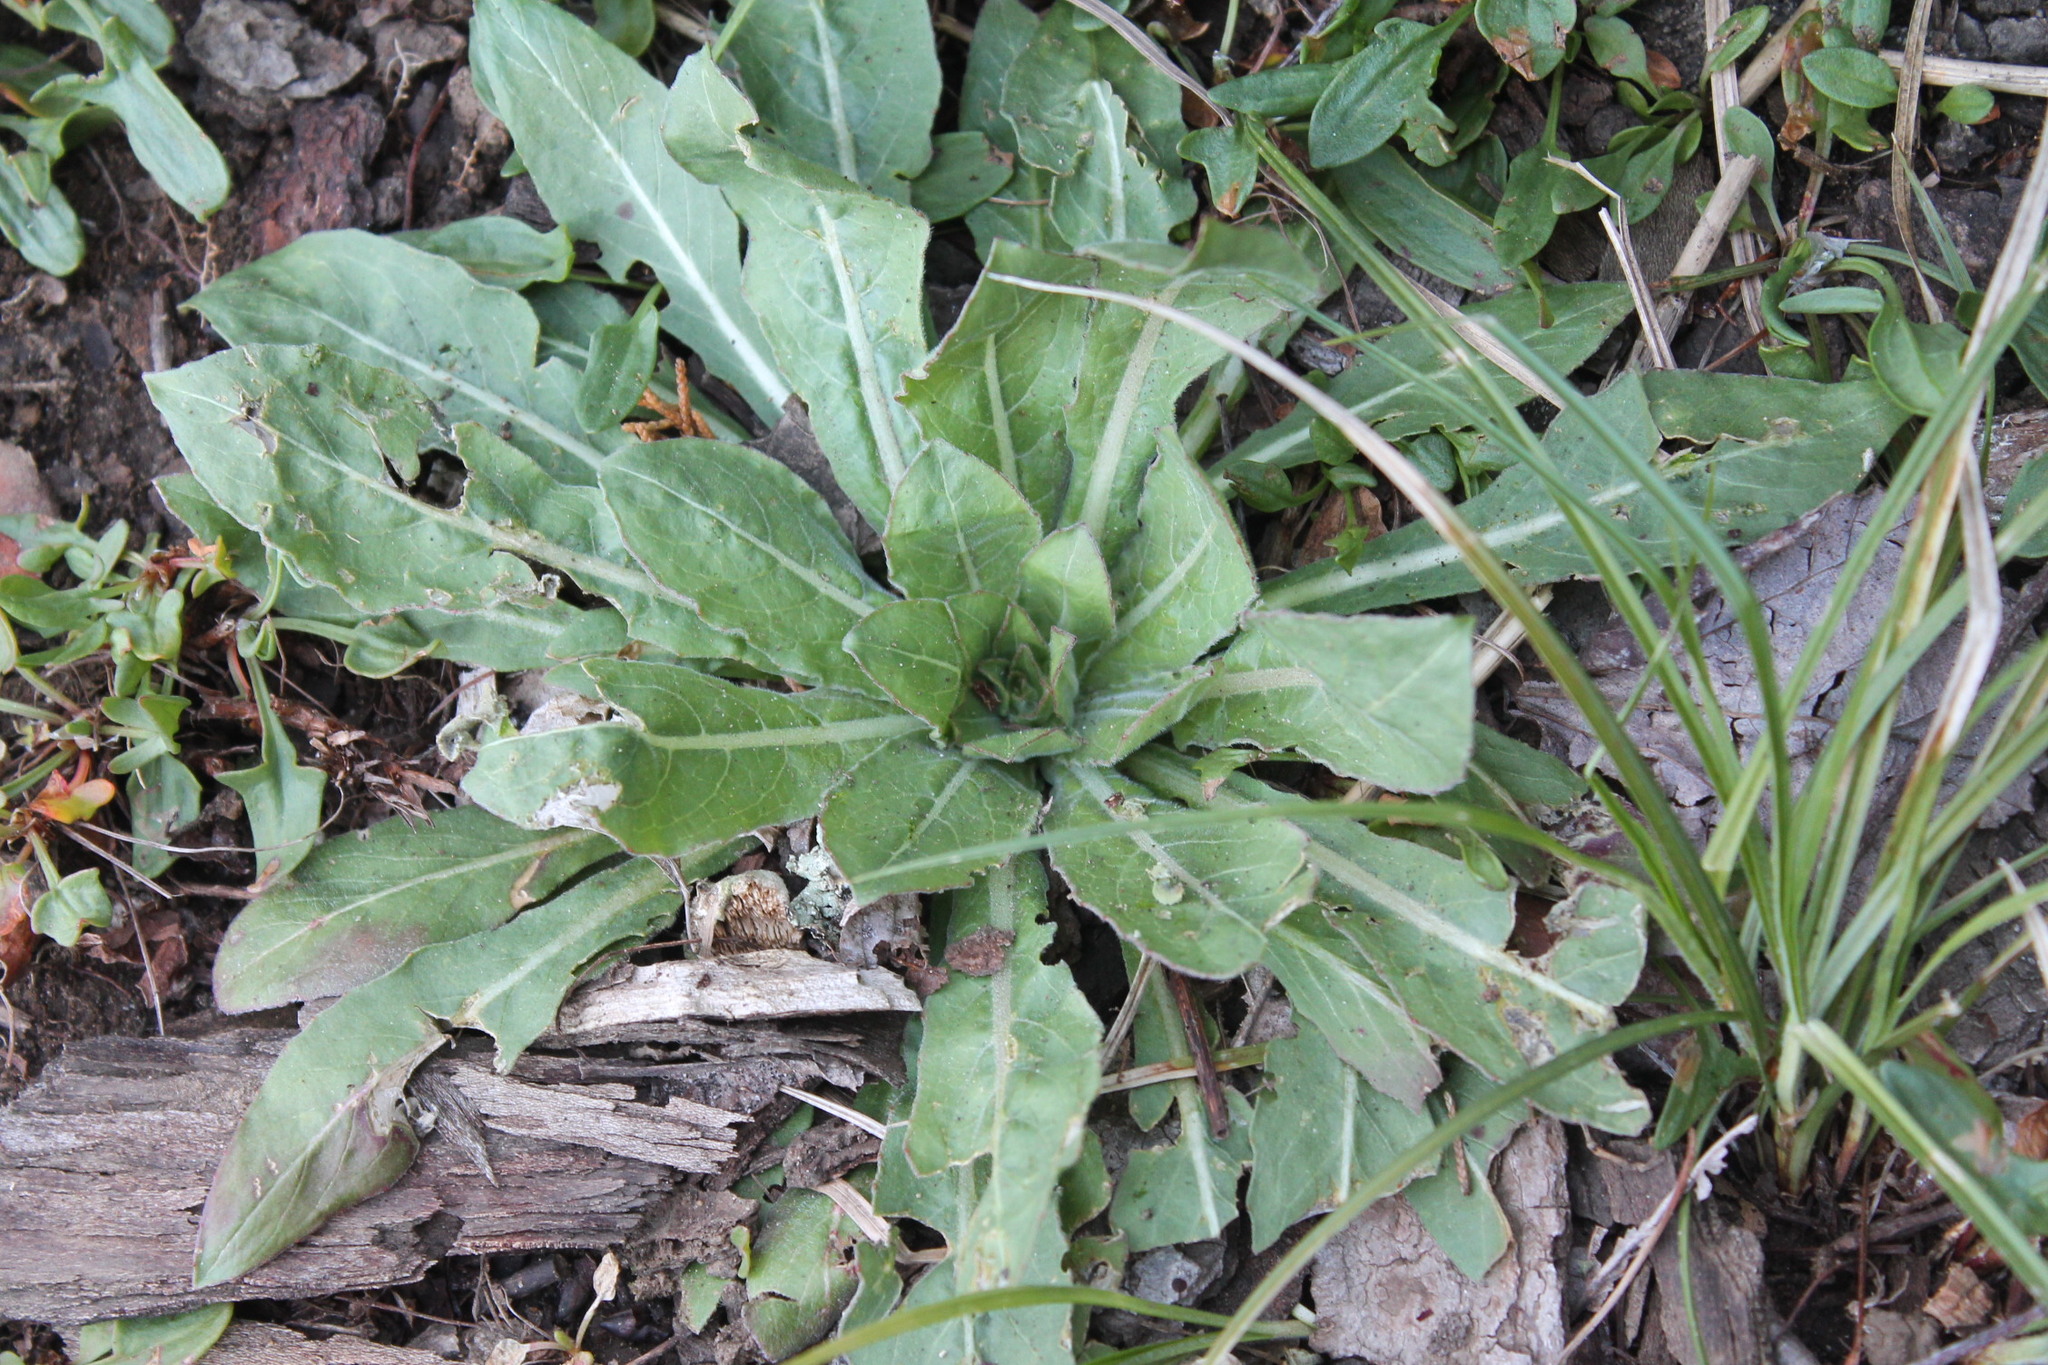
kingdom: Plantae
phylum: Tracheophyta
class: Magnoliopsida
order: Myrtales
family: Onagraceae
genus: Oenothera
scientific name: Oenothera biennis
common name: Common evening-primrose
